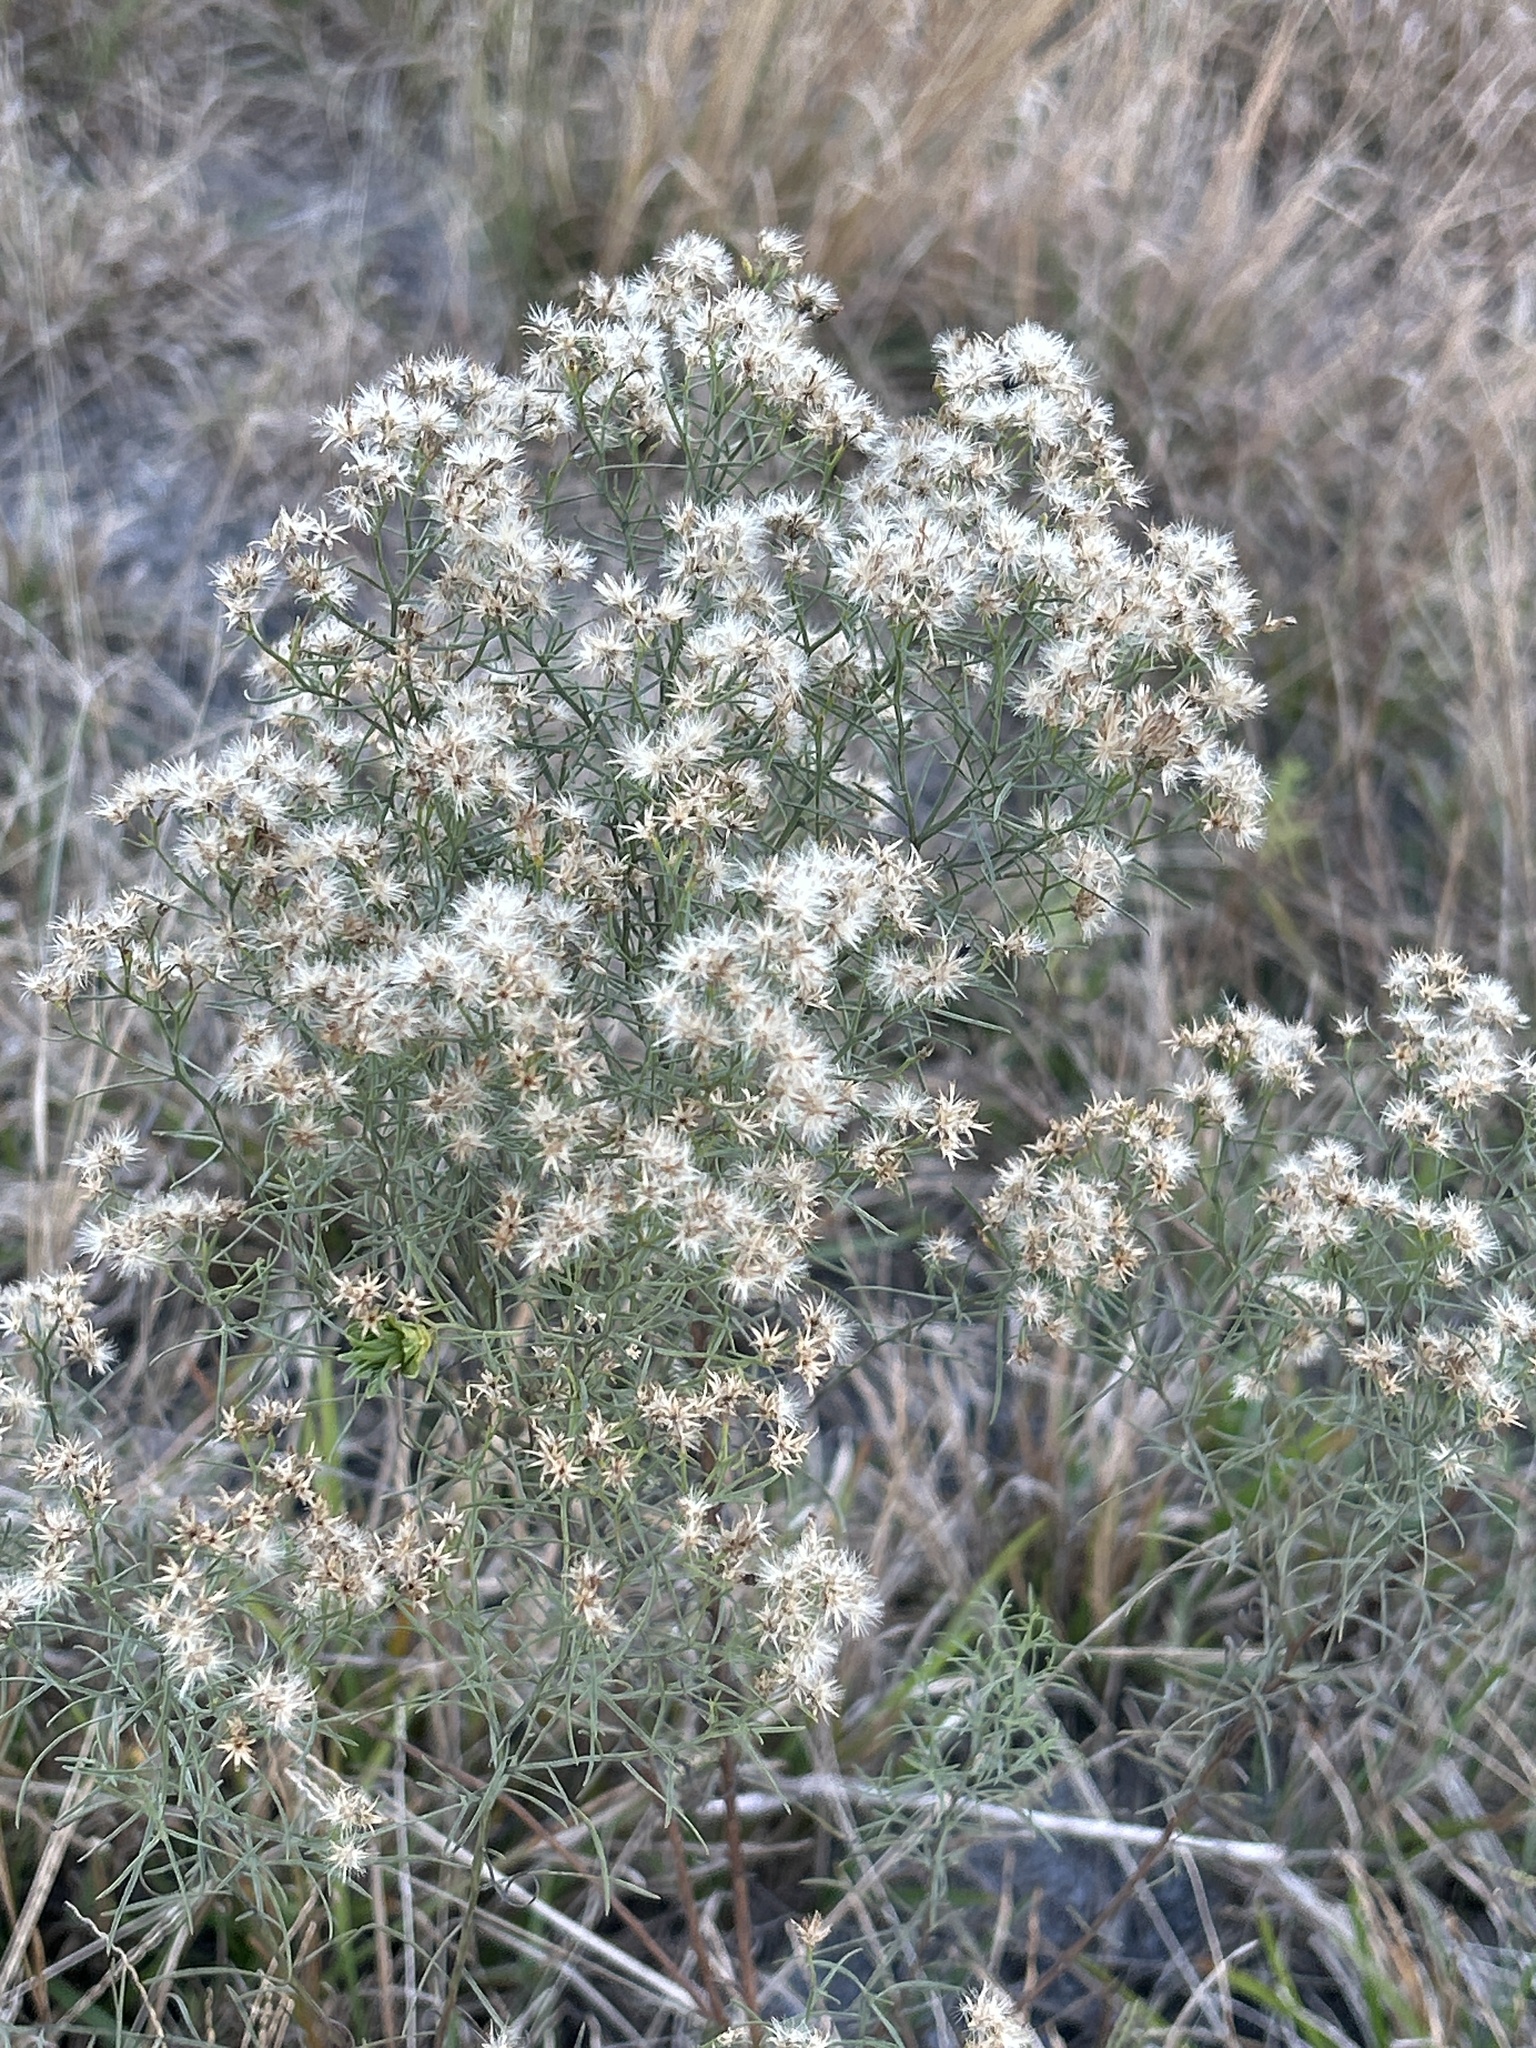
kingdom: Plantae
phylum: Tracheophyta
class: Magnoliopsida
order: Asterales
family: Asteraceae
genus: Euthamia
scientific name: Euthamia caroliniana
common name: Coastal plain goldentop
